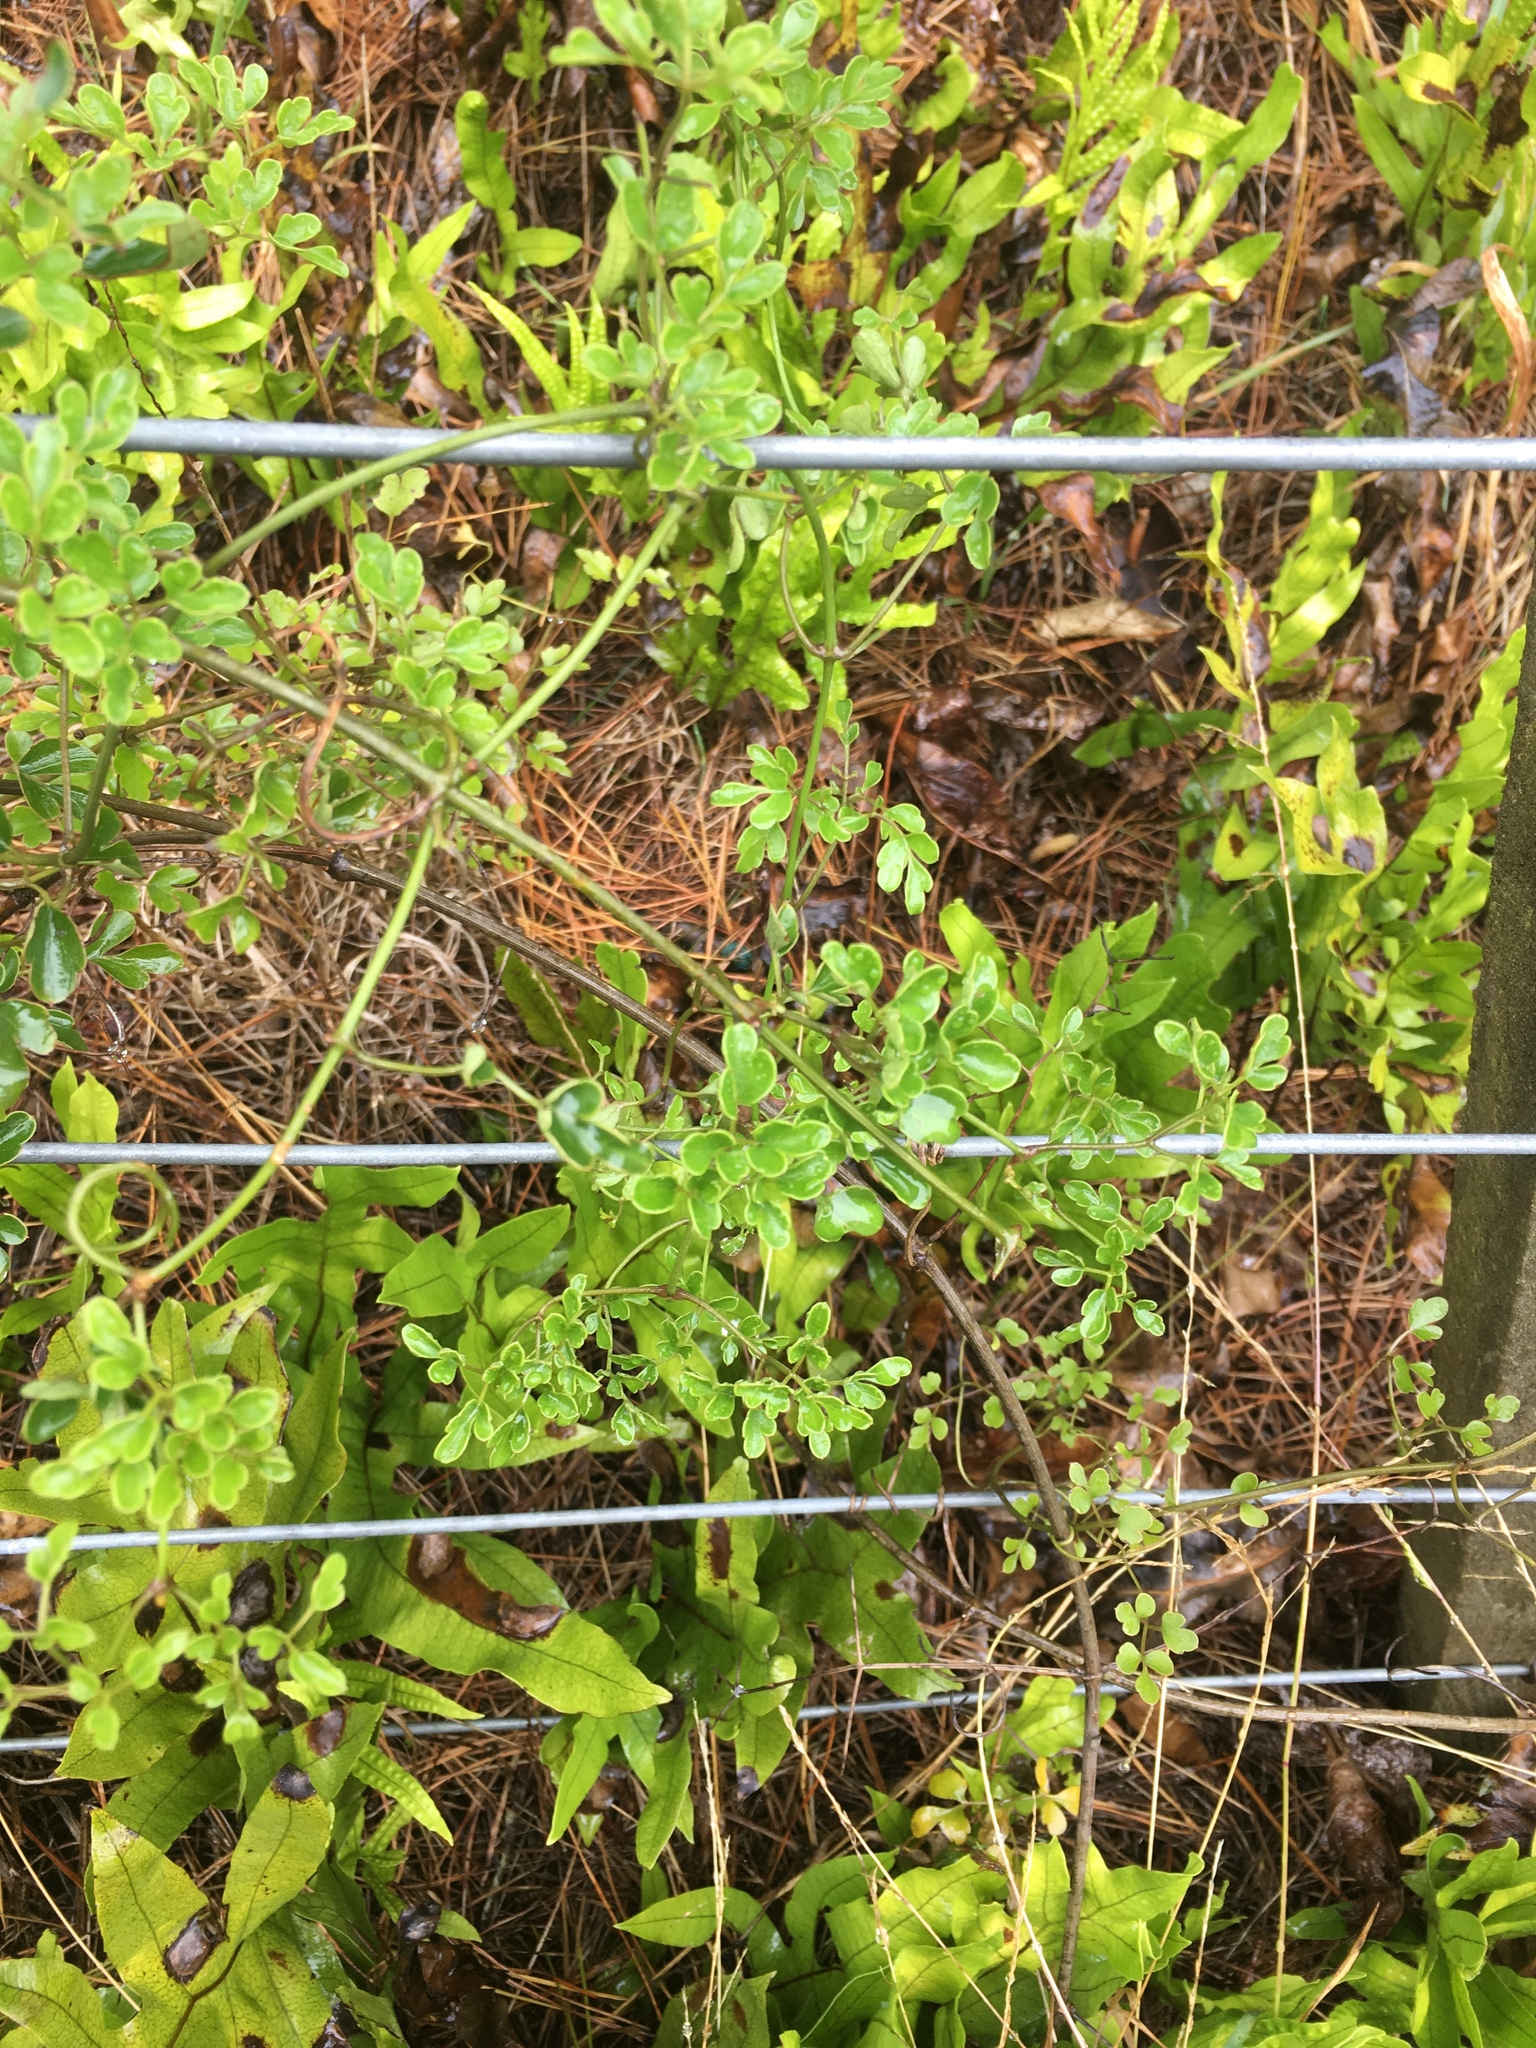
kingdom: Plantae
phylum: Tracheophyta
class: Magnoliopsida
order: Ranunculales
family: Ranunculaceae
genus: Clematis
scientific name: Clematis forsteri
